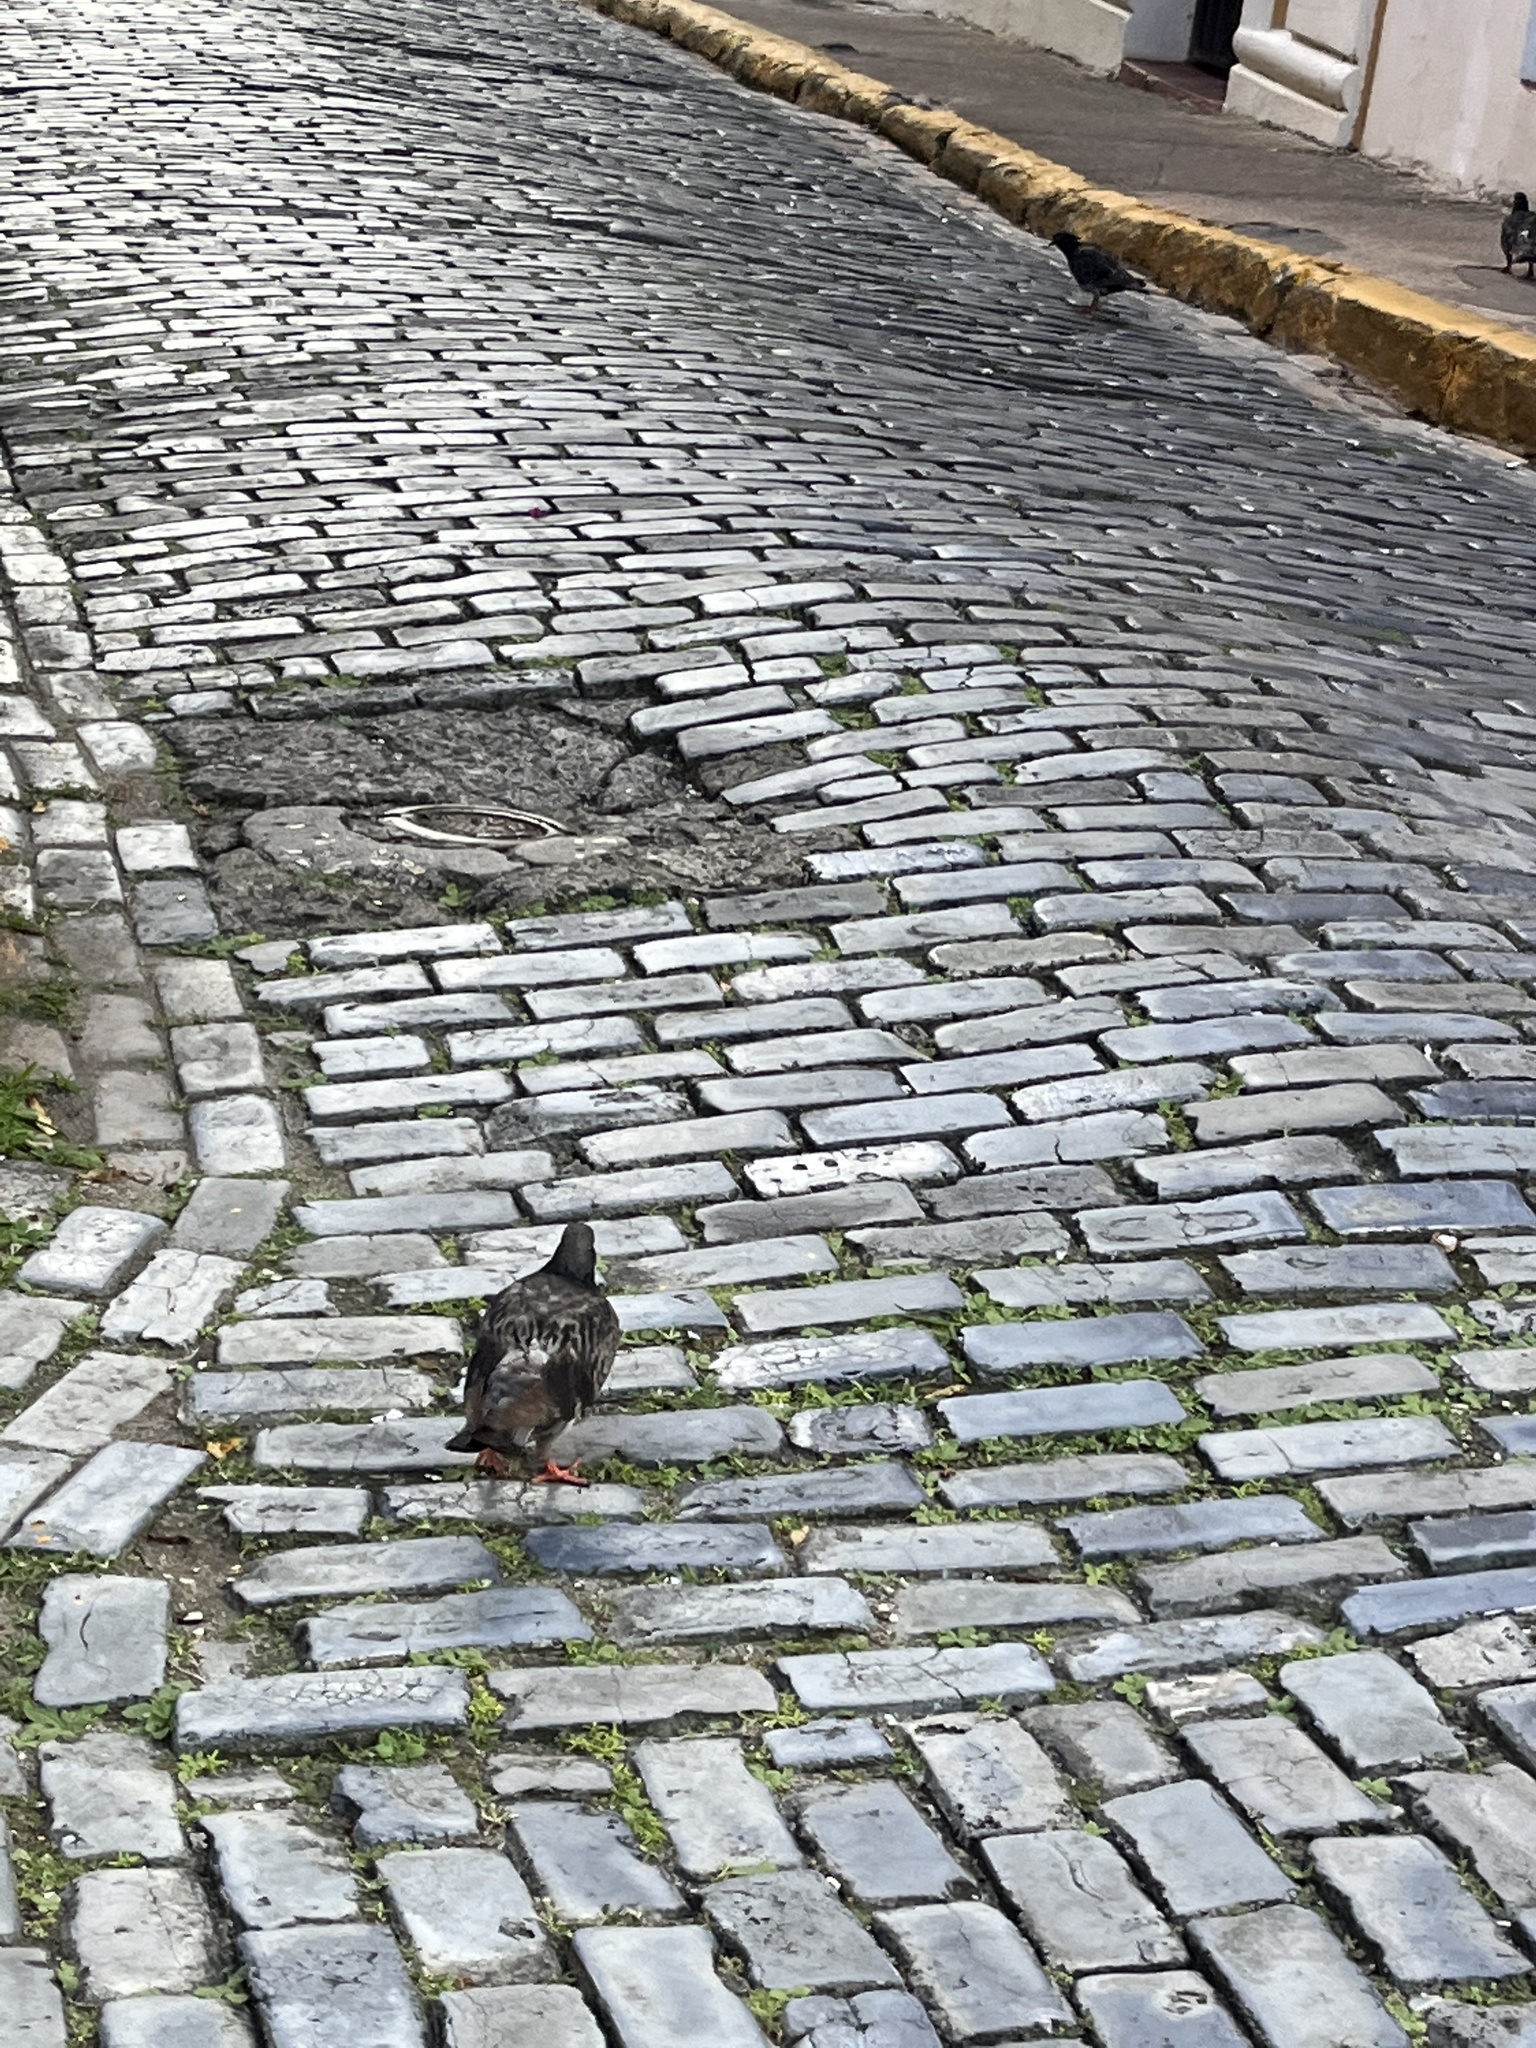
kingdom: Animalia
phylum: Chordata
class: Aves
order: Columbiformes
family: Columbidae
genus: Columba
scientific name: Columba livia
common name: Rock pigeon
